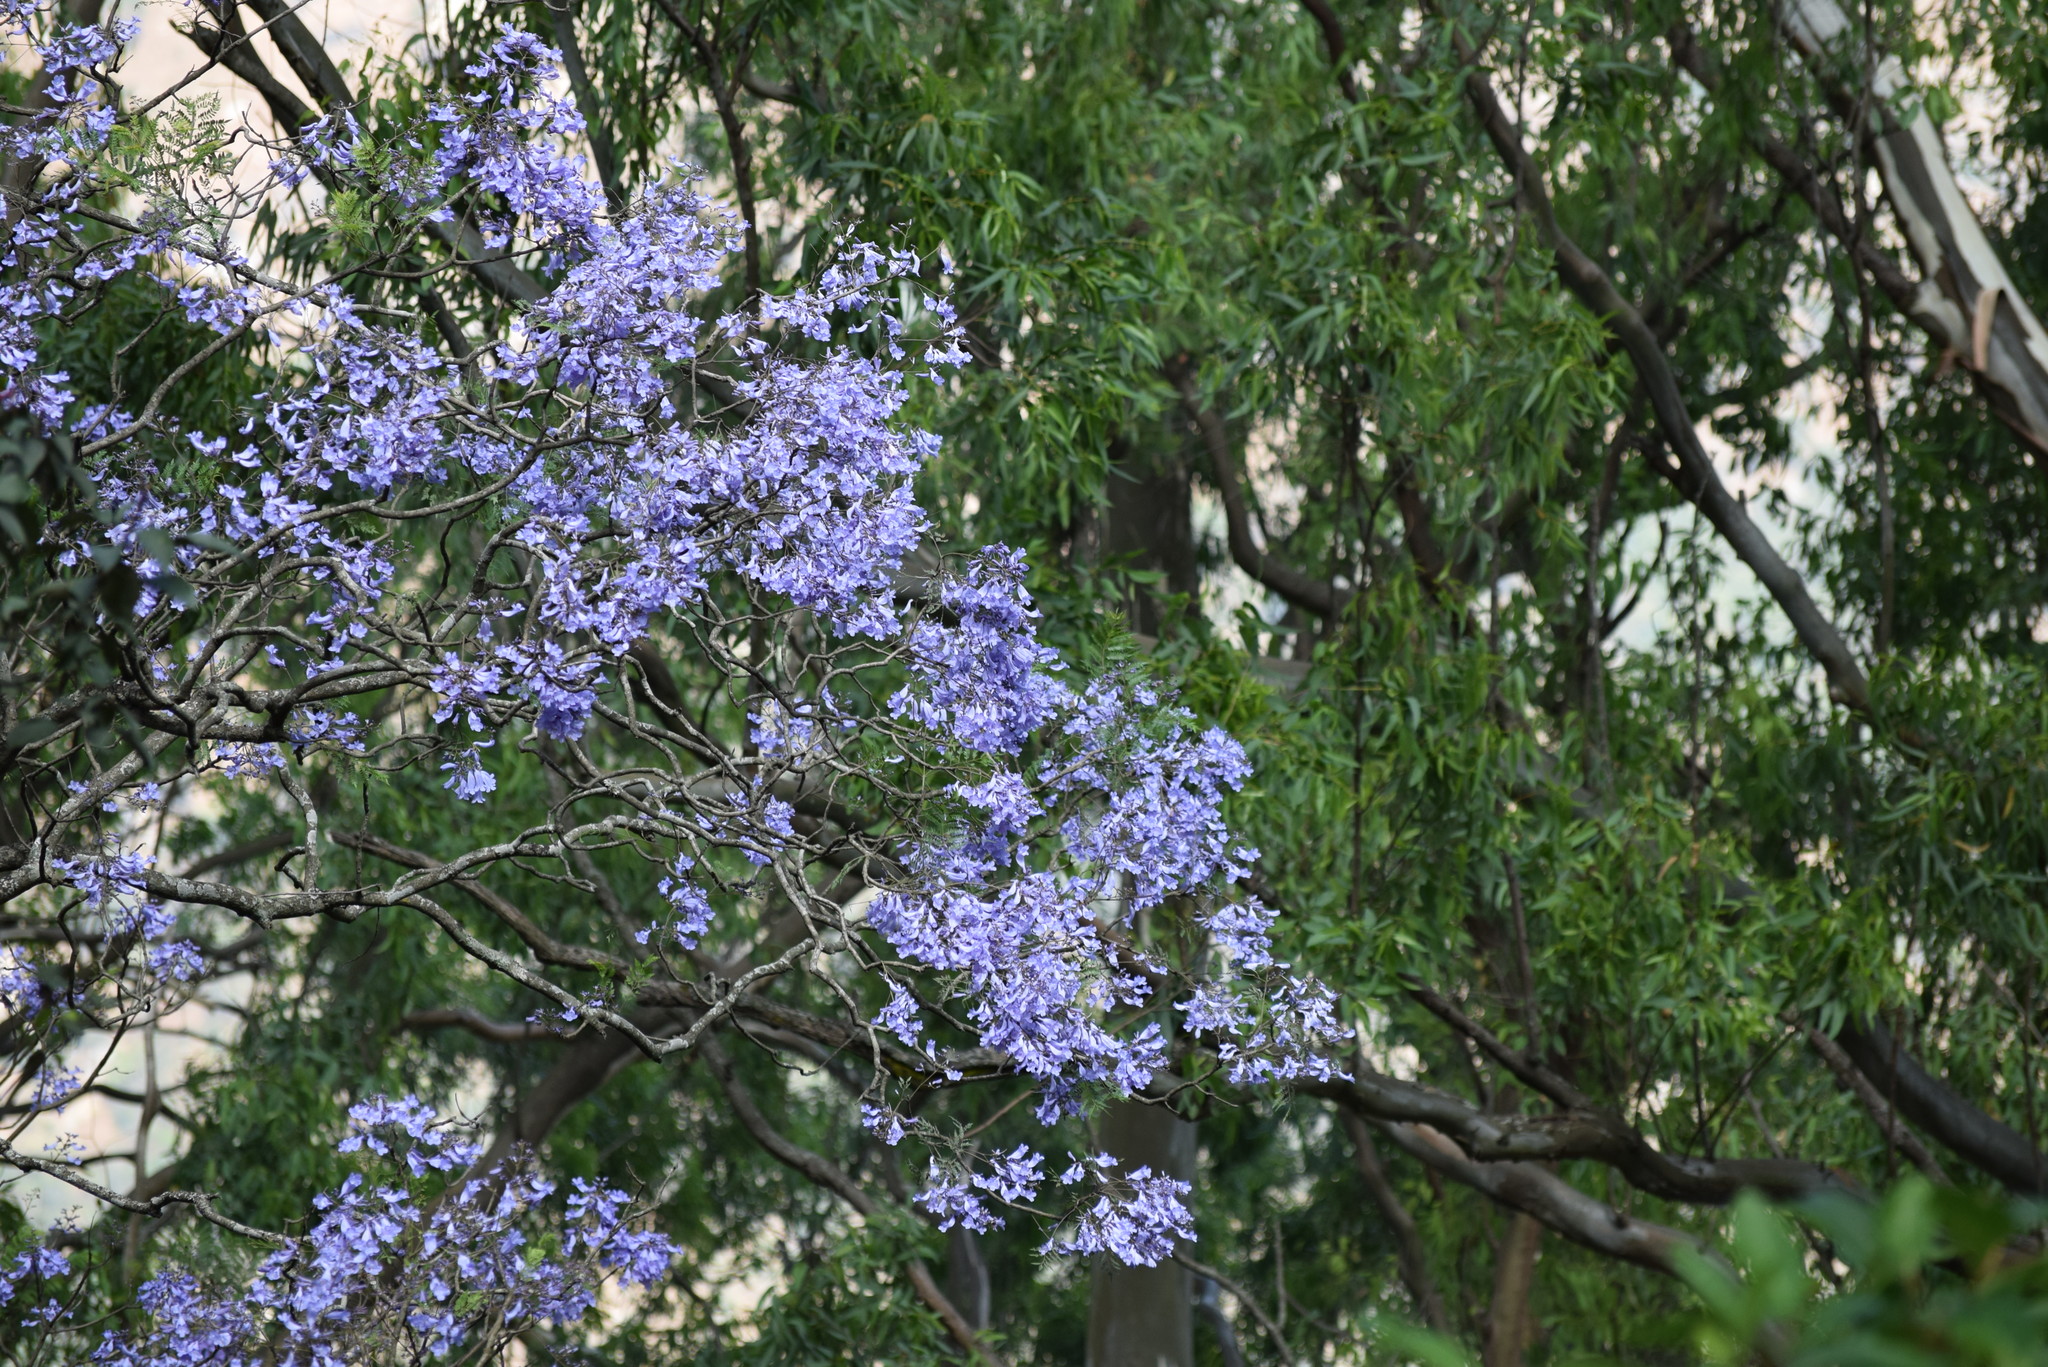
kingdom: Plantae
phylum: Tracheophyta
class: Magnoliopsida
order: Lamiales
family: Bignoniaceae
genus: Jacaranda
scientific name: Jacaranda mimosifolia
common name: Black poui
